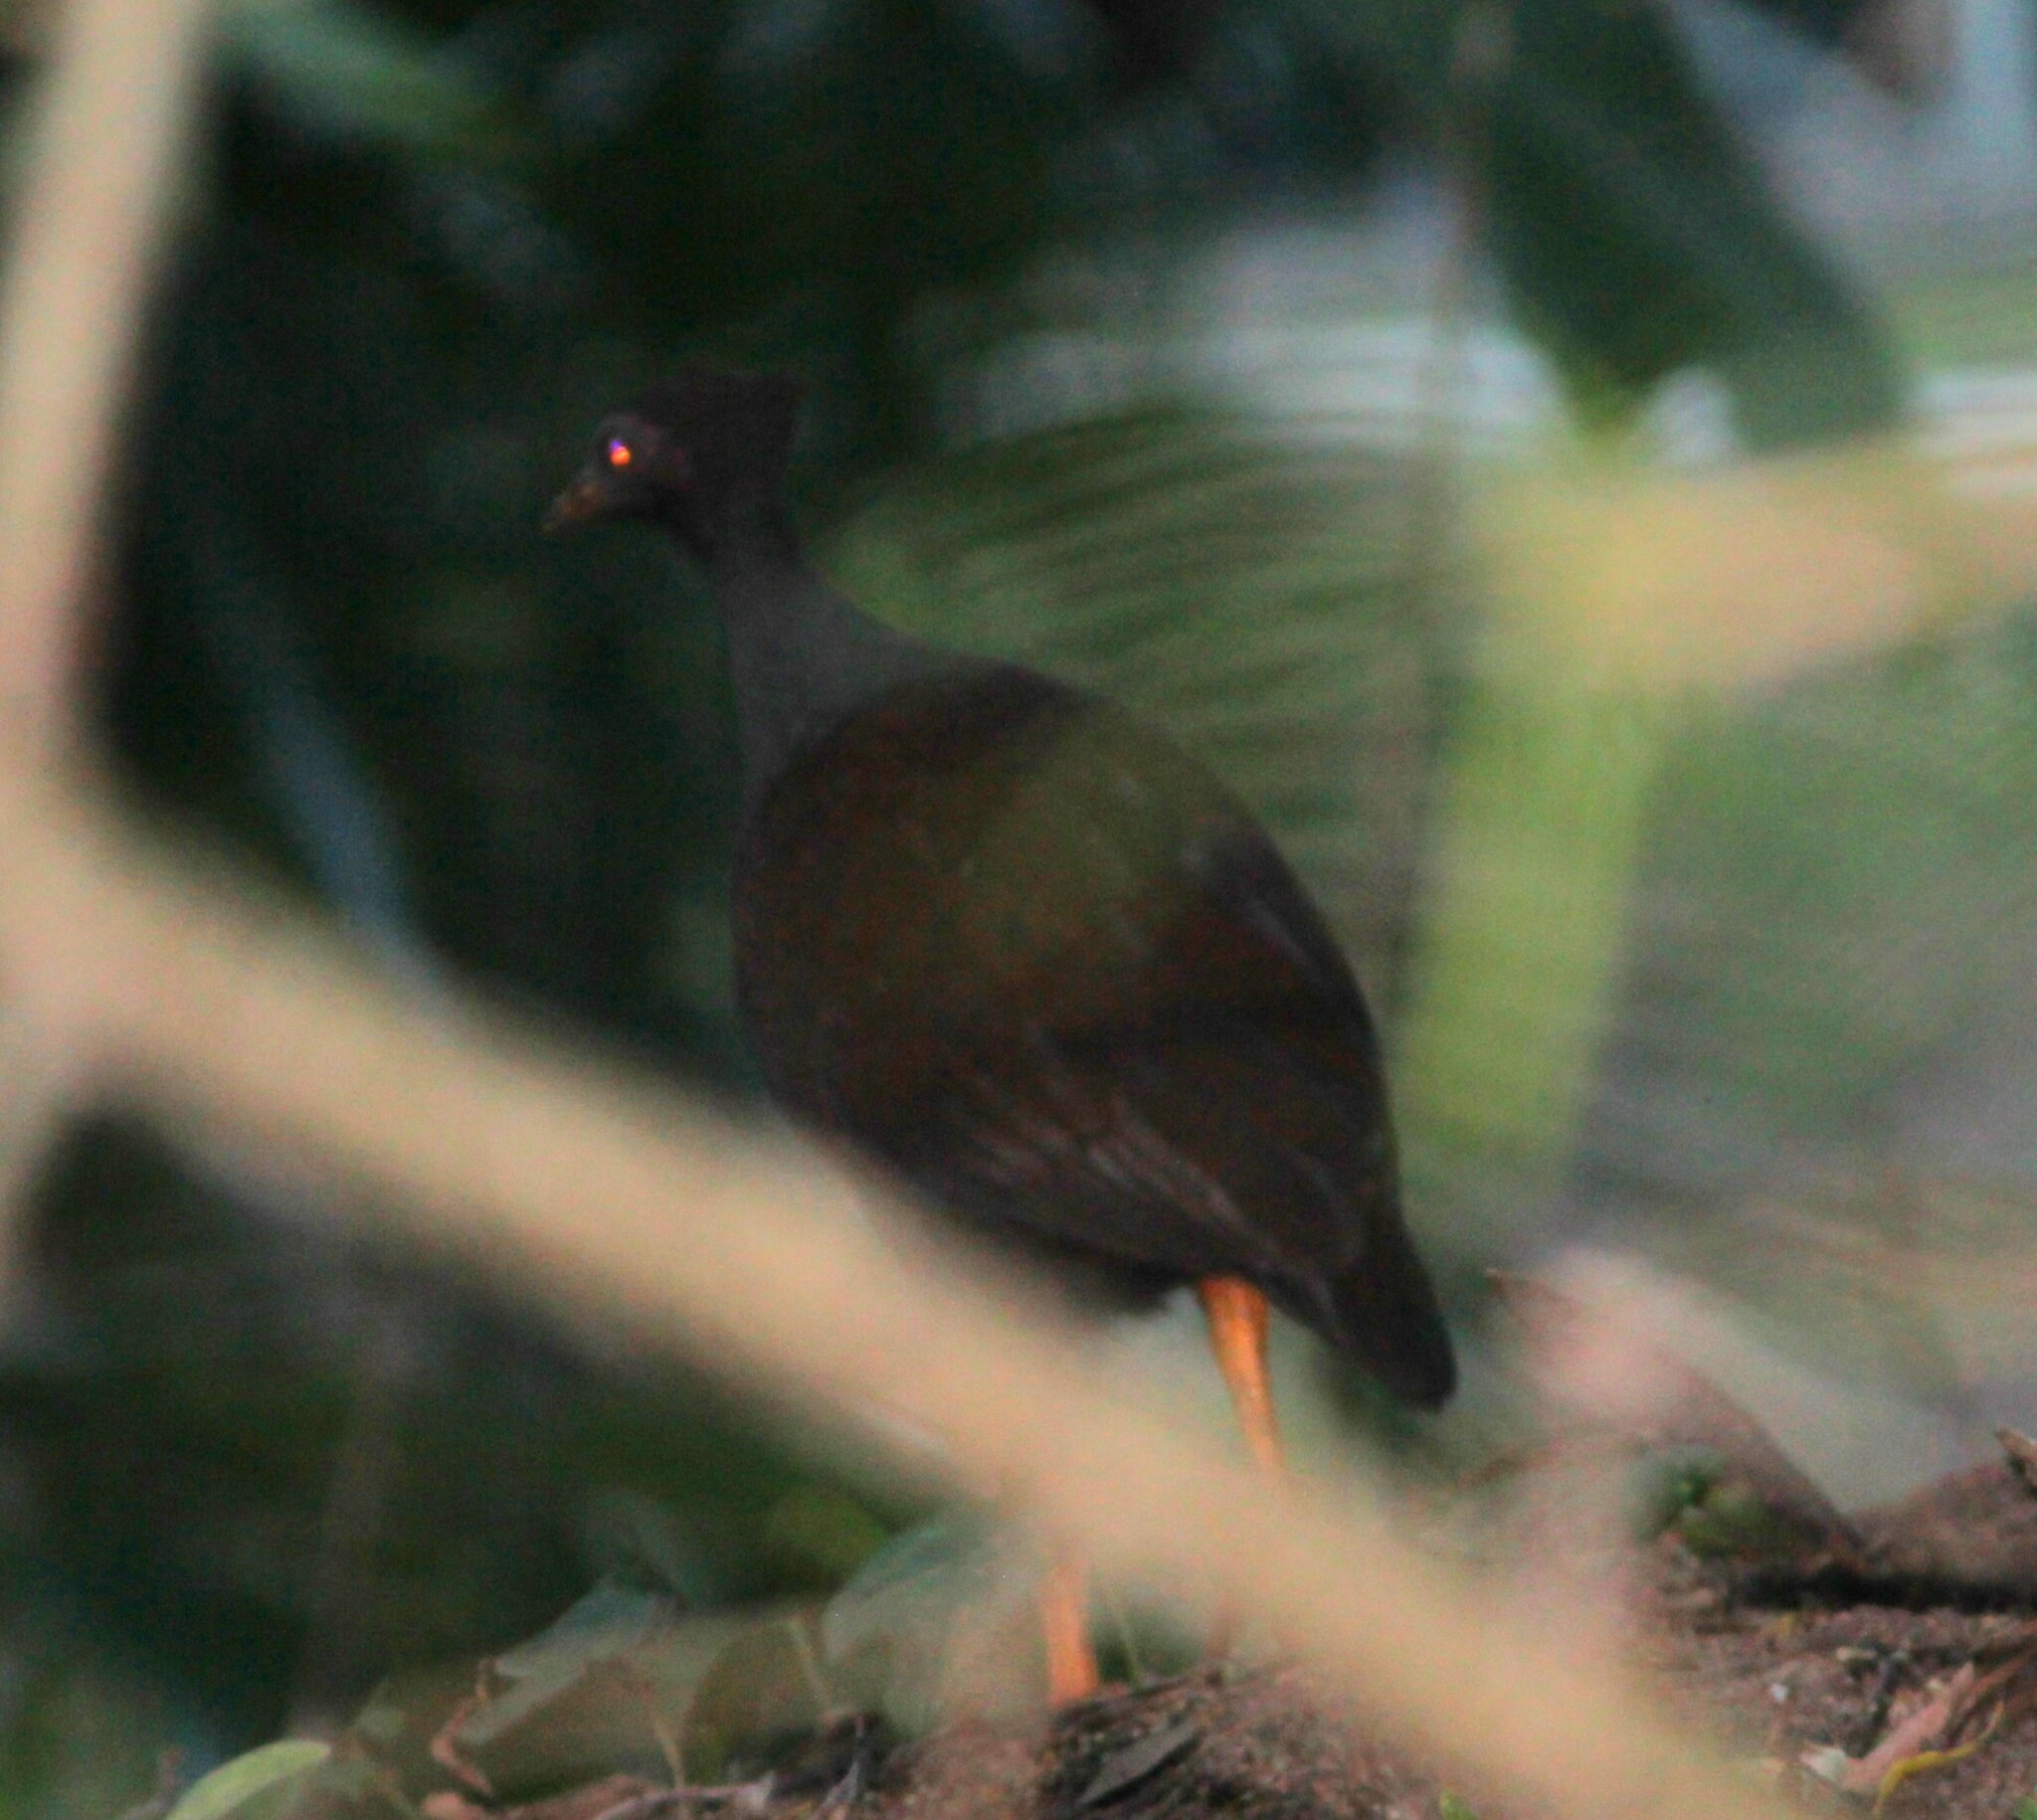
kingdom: Animalia
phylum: Chordata
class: Aves
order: Galliformes
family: Megapodiidae
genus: Megapodius
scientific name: Megapodius reinwardt
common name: Orange-footed scrubfowl
